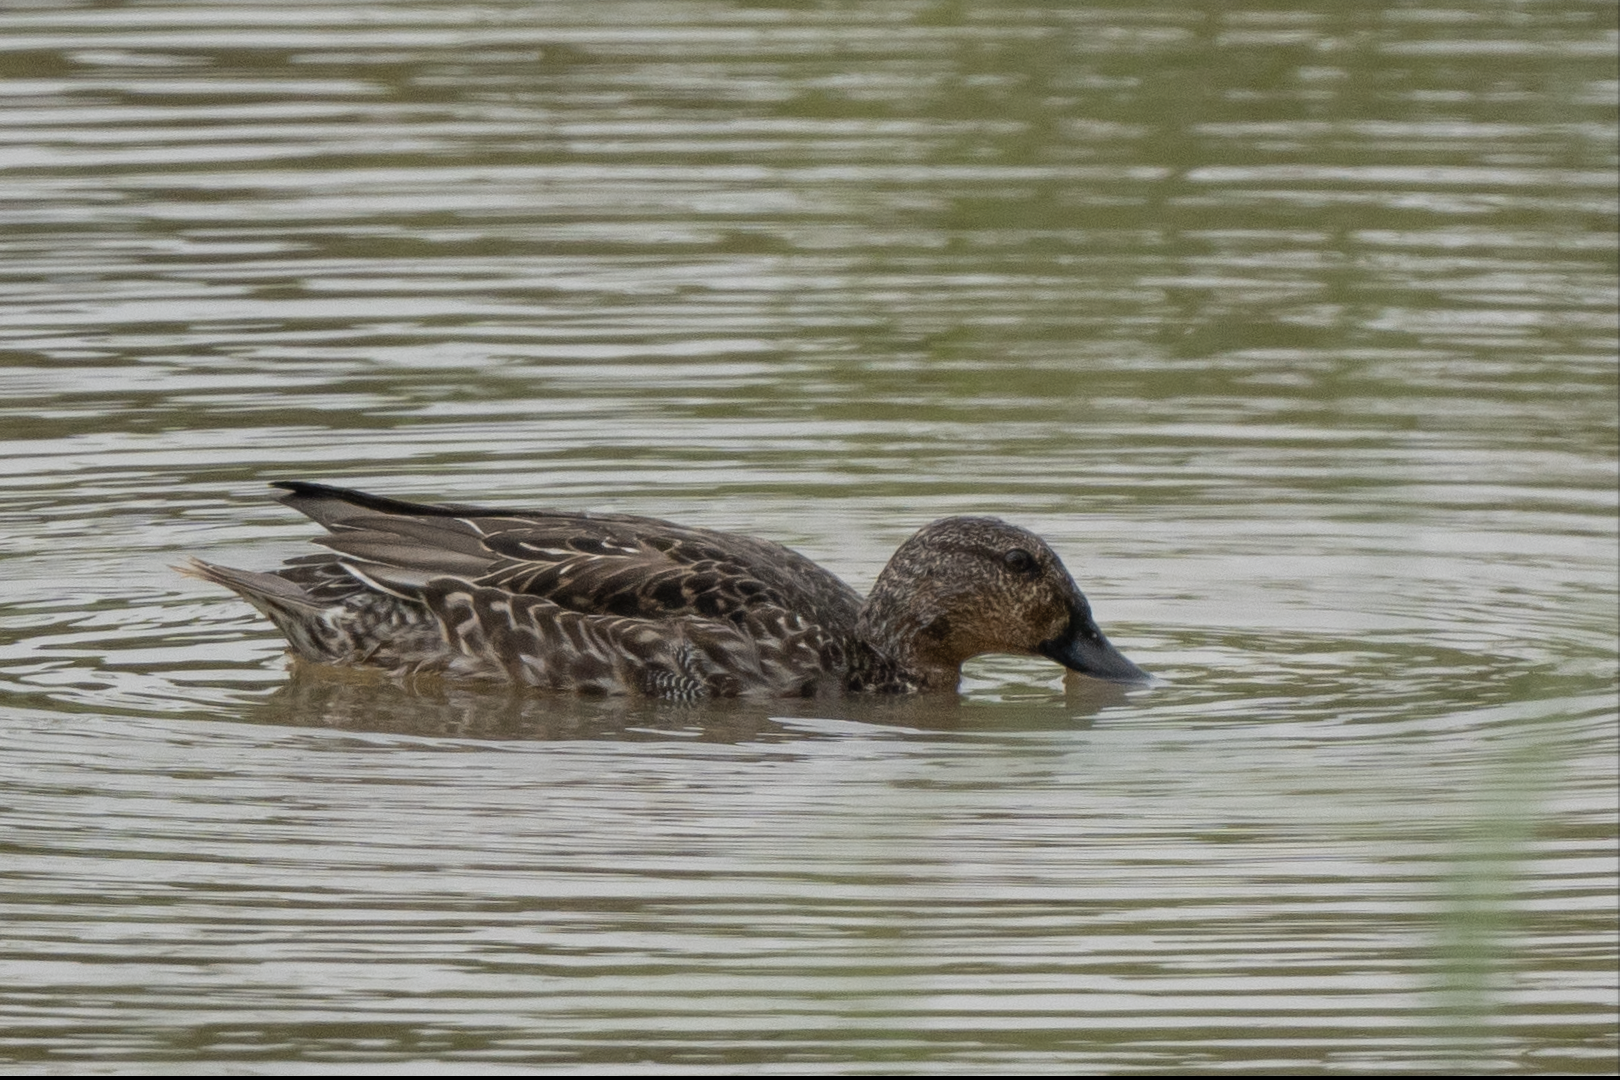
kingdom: Animalia
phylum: Chordata
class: Aves
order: Anseriformes
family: Anatidae
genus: Anas
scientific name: Anas crecca
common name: Eurasian teal
